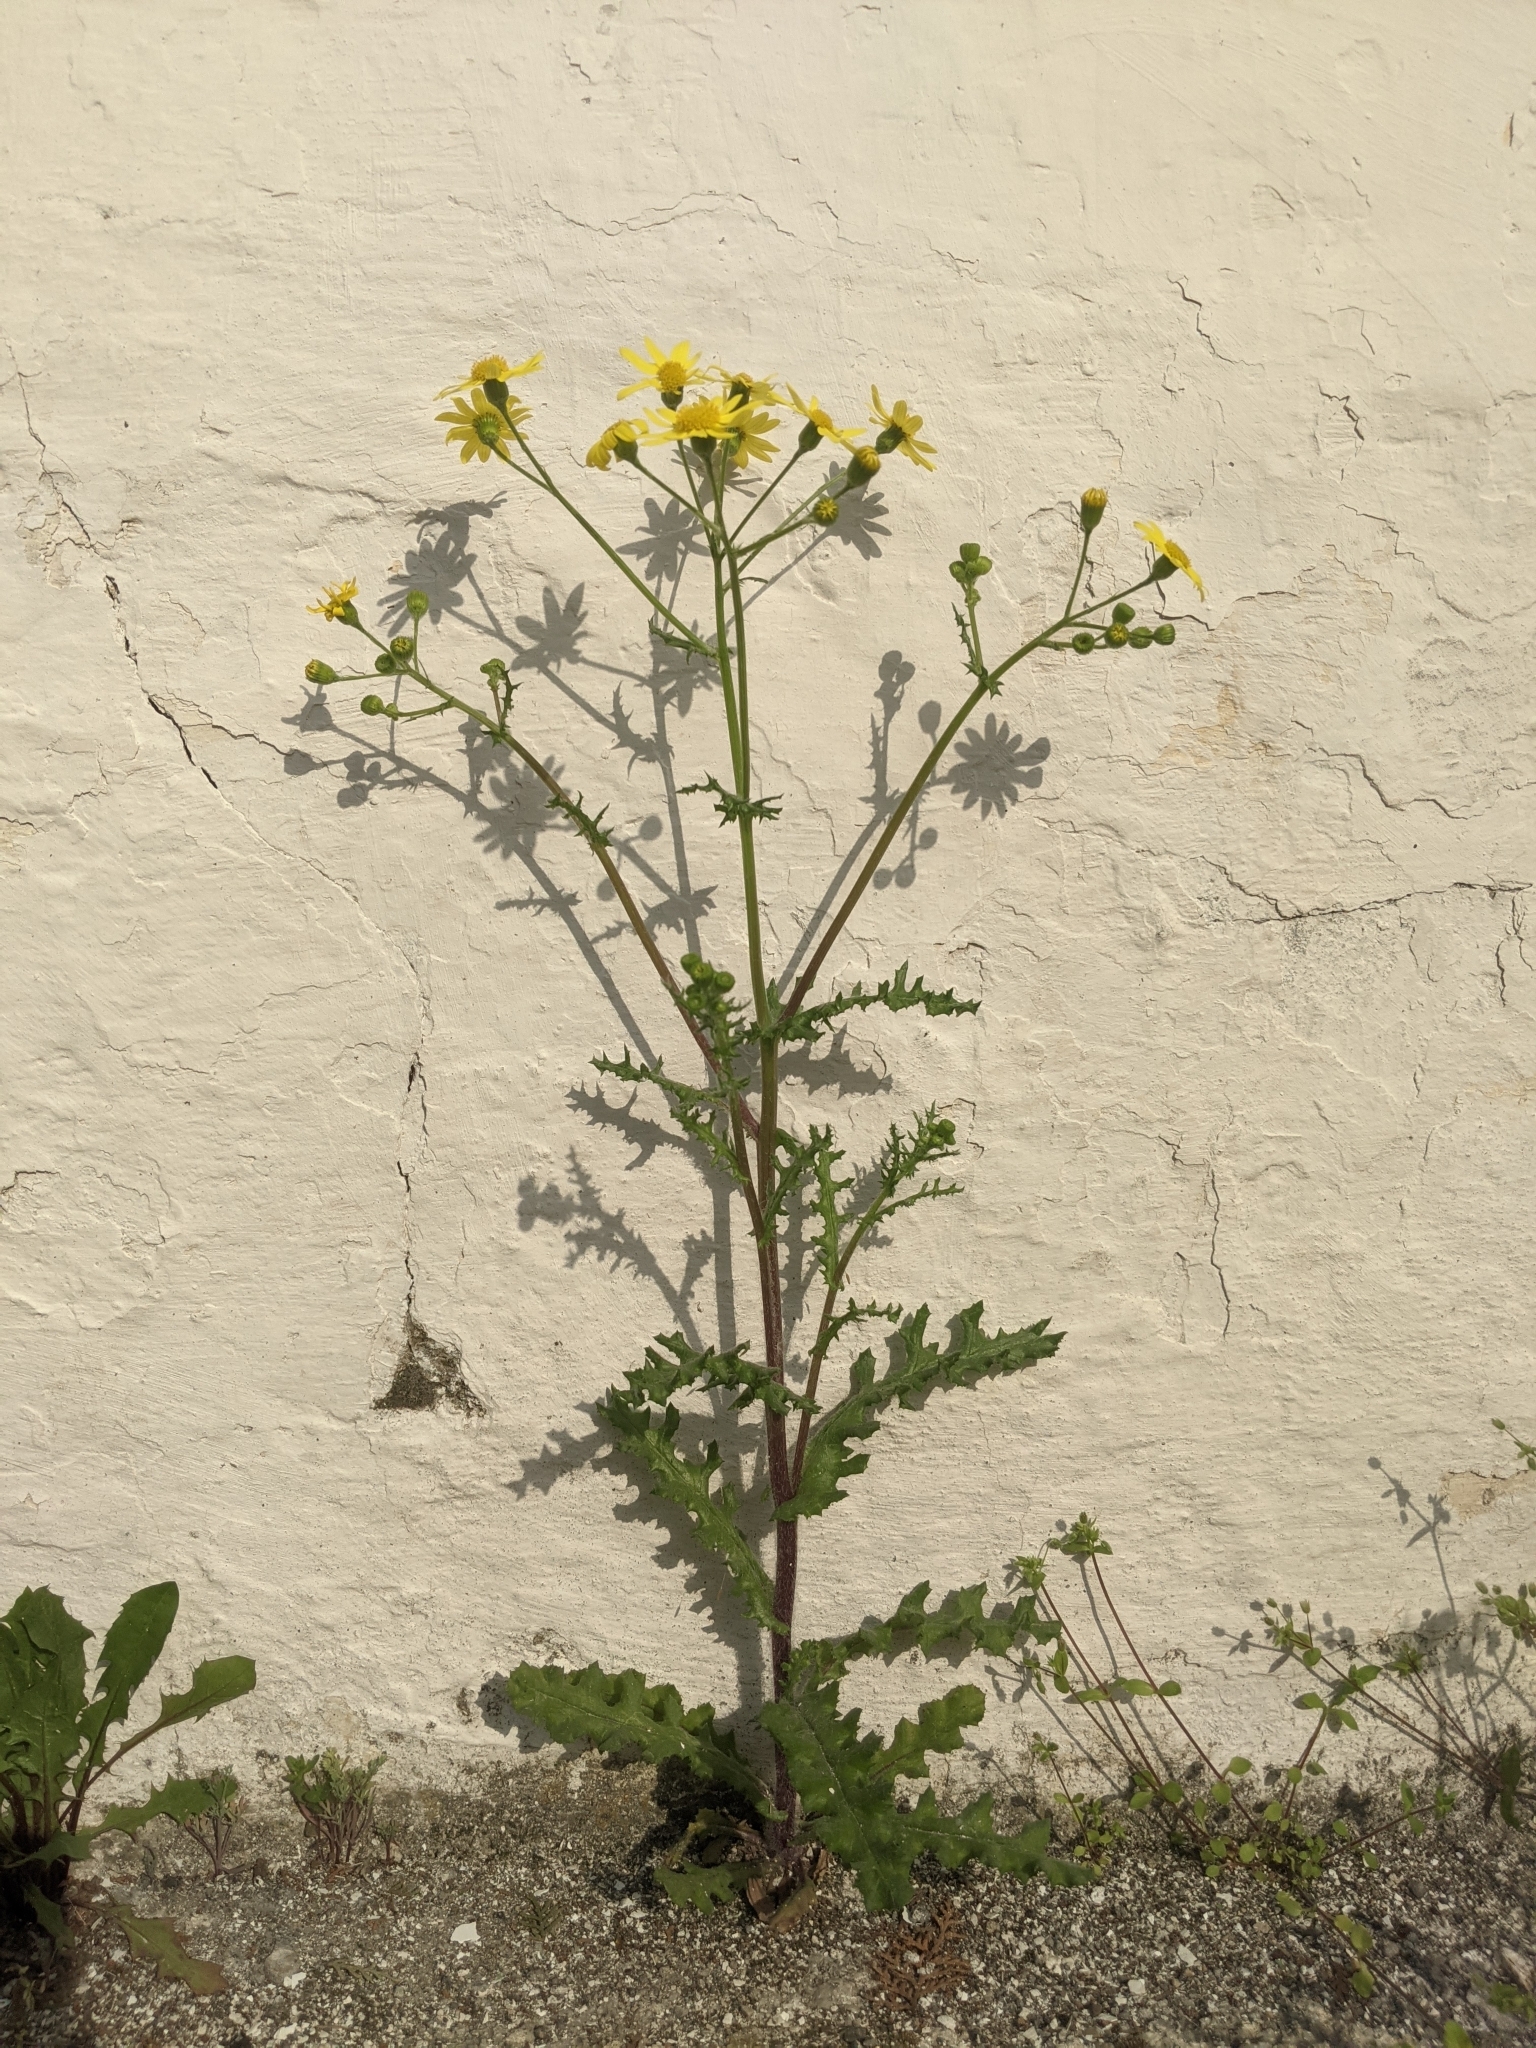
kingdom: Plantae
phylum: Tracheophyta
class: Magnoliopsida
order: Asterales
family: Asteraceae
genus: Senecio
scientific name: Senecio vernalis
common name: Eastern groundsel
